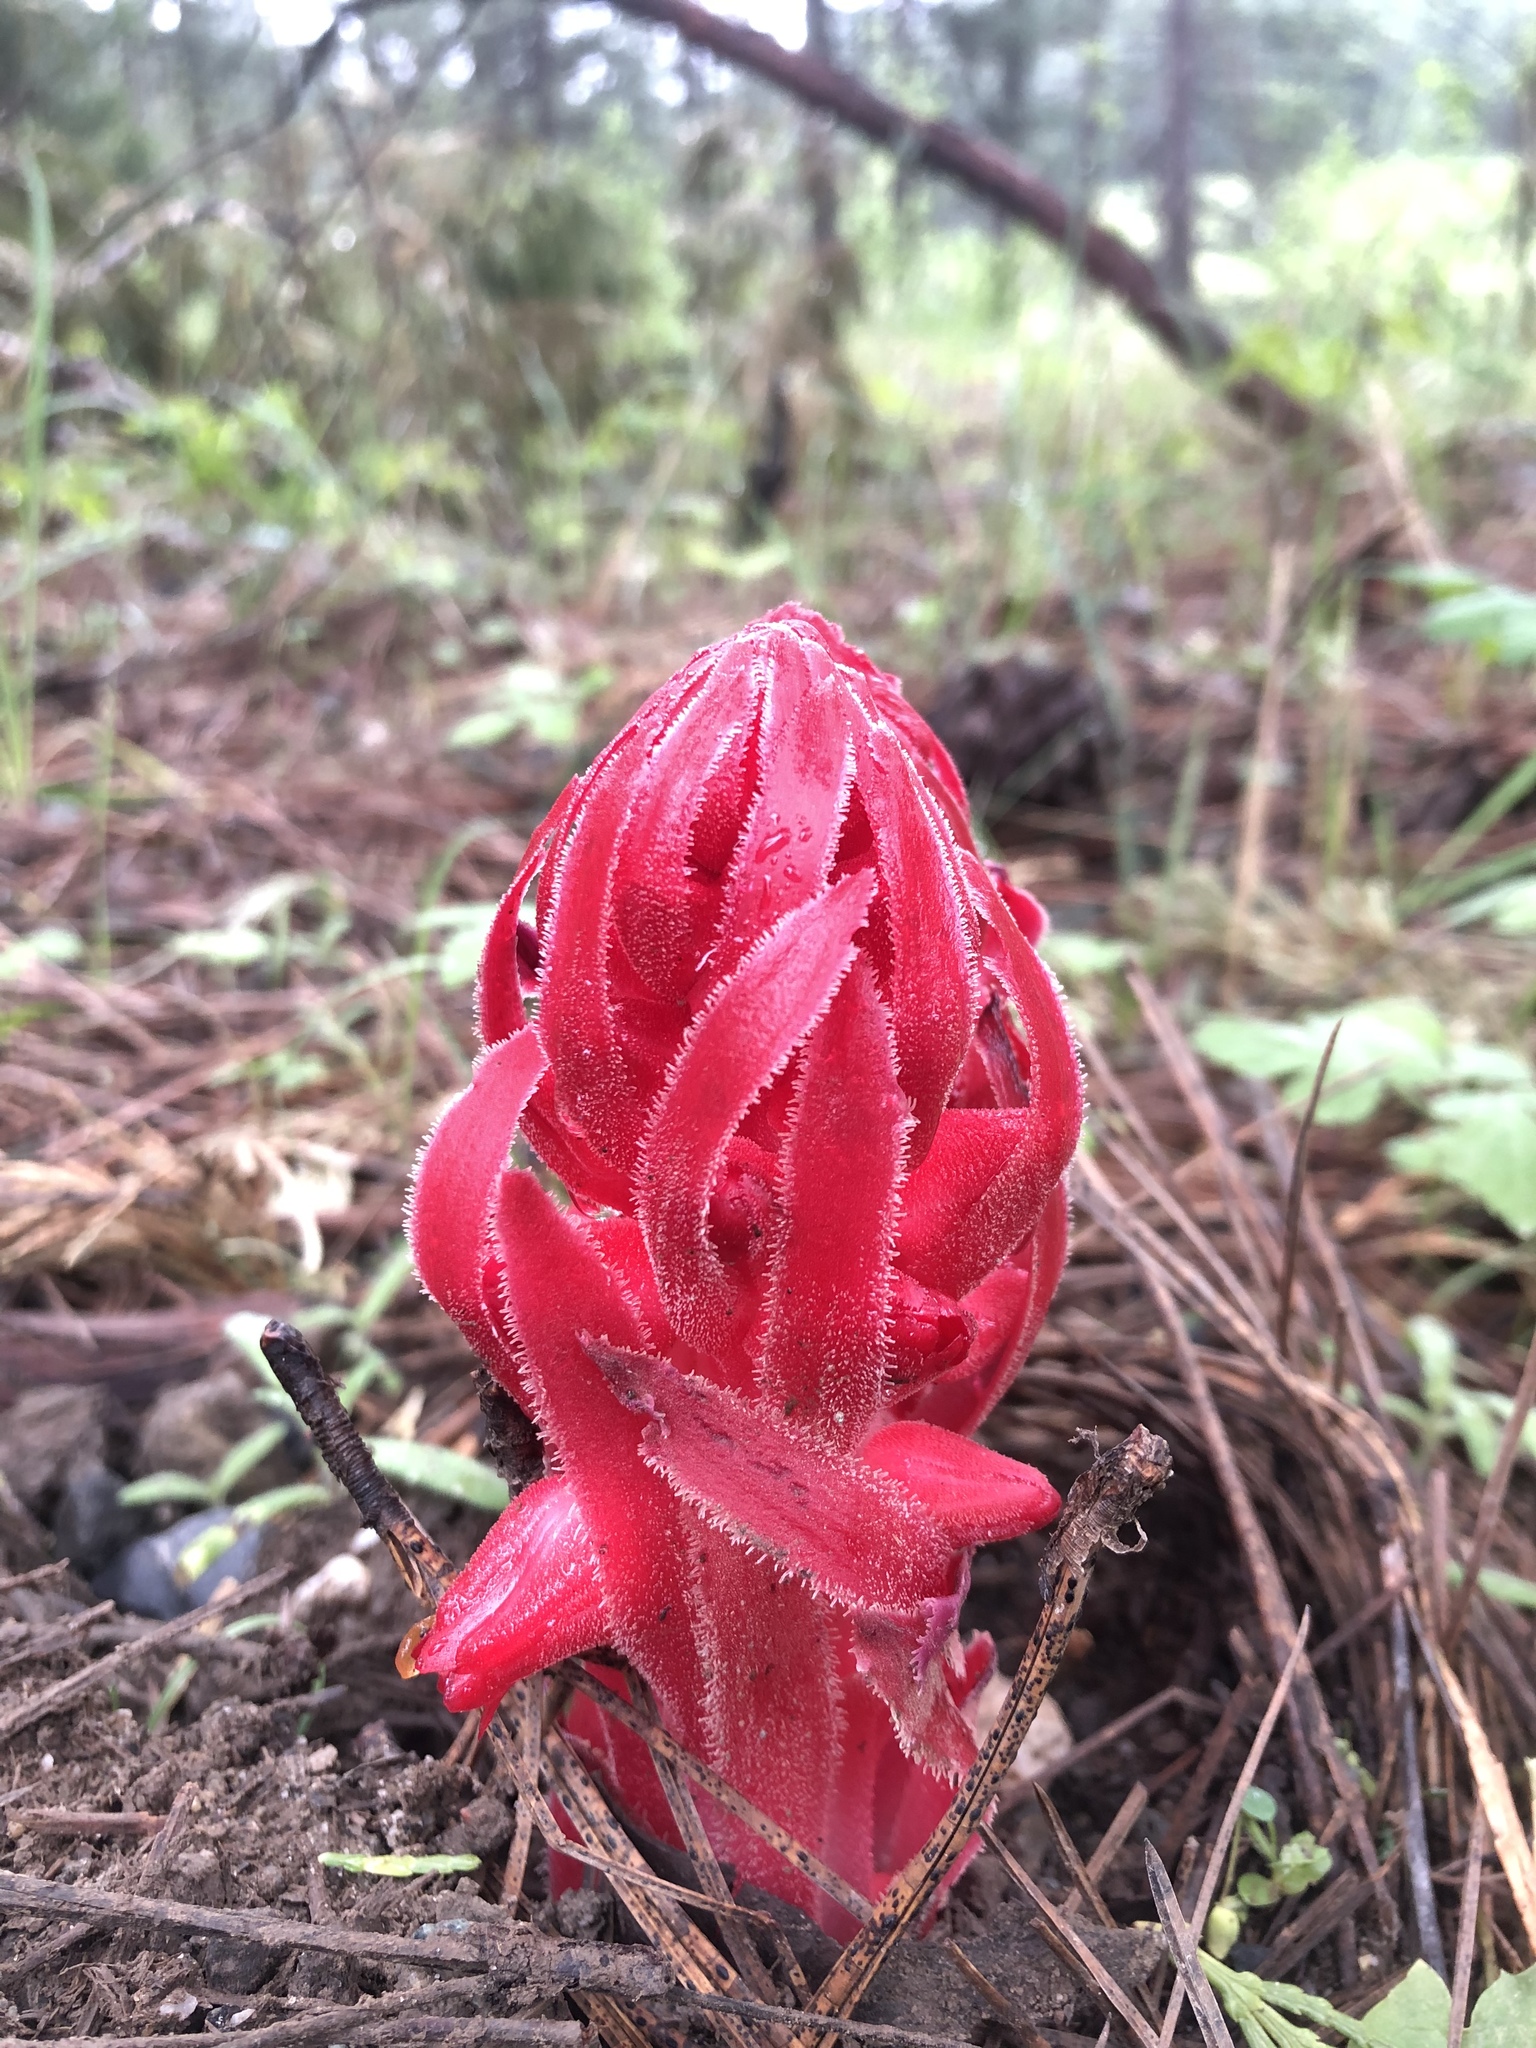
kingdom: Plantae
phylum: Tracheophyta
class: Magnoliopsida
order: Ericales
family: Ericaceae
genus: Sarcodes
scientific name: Sarcodes sanguinea
